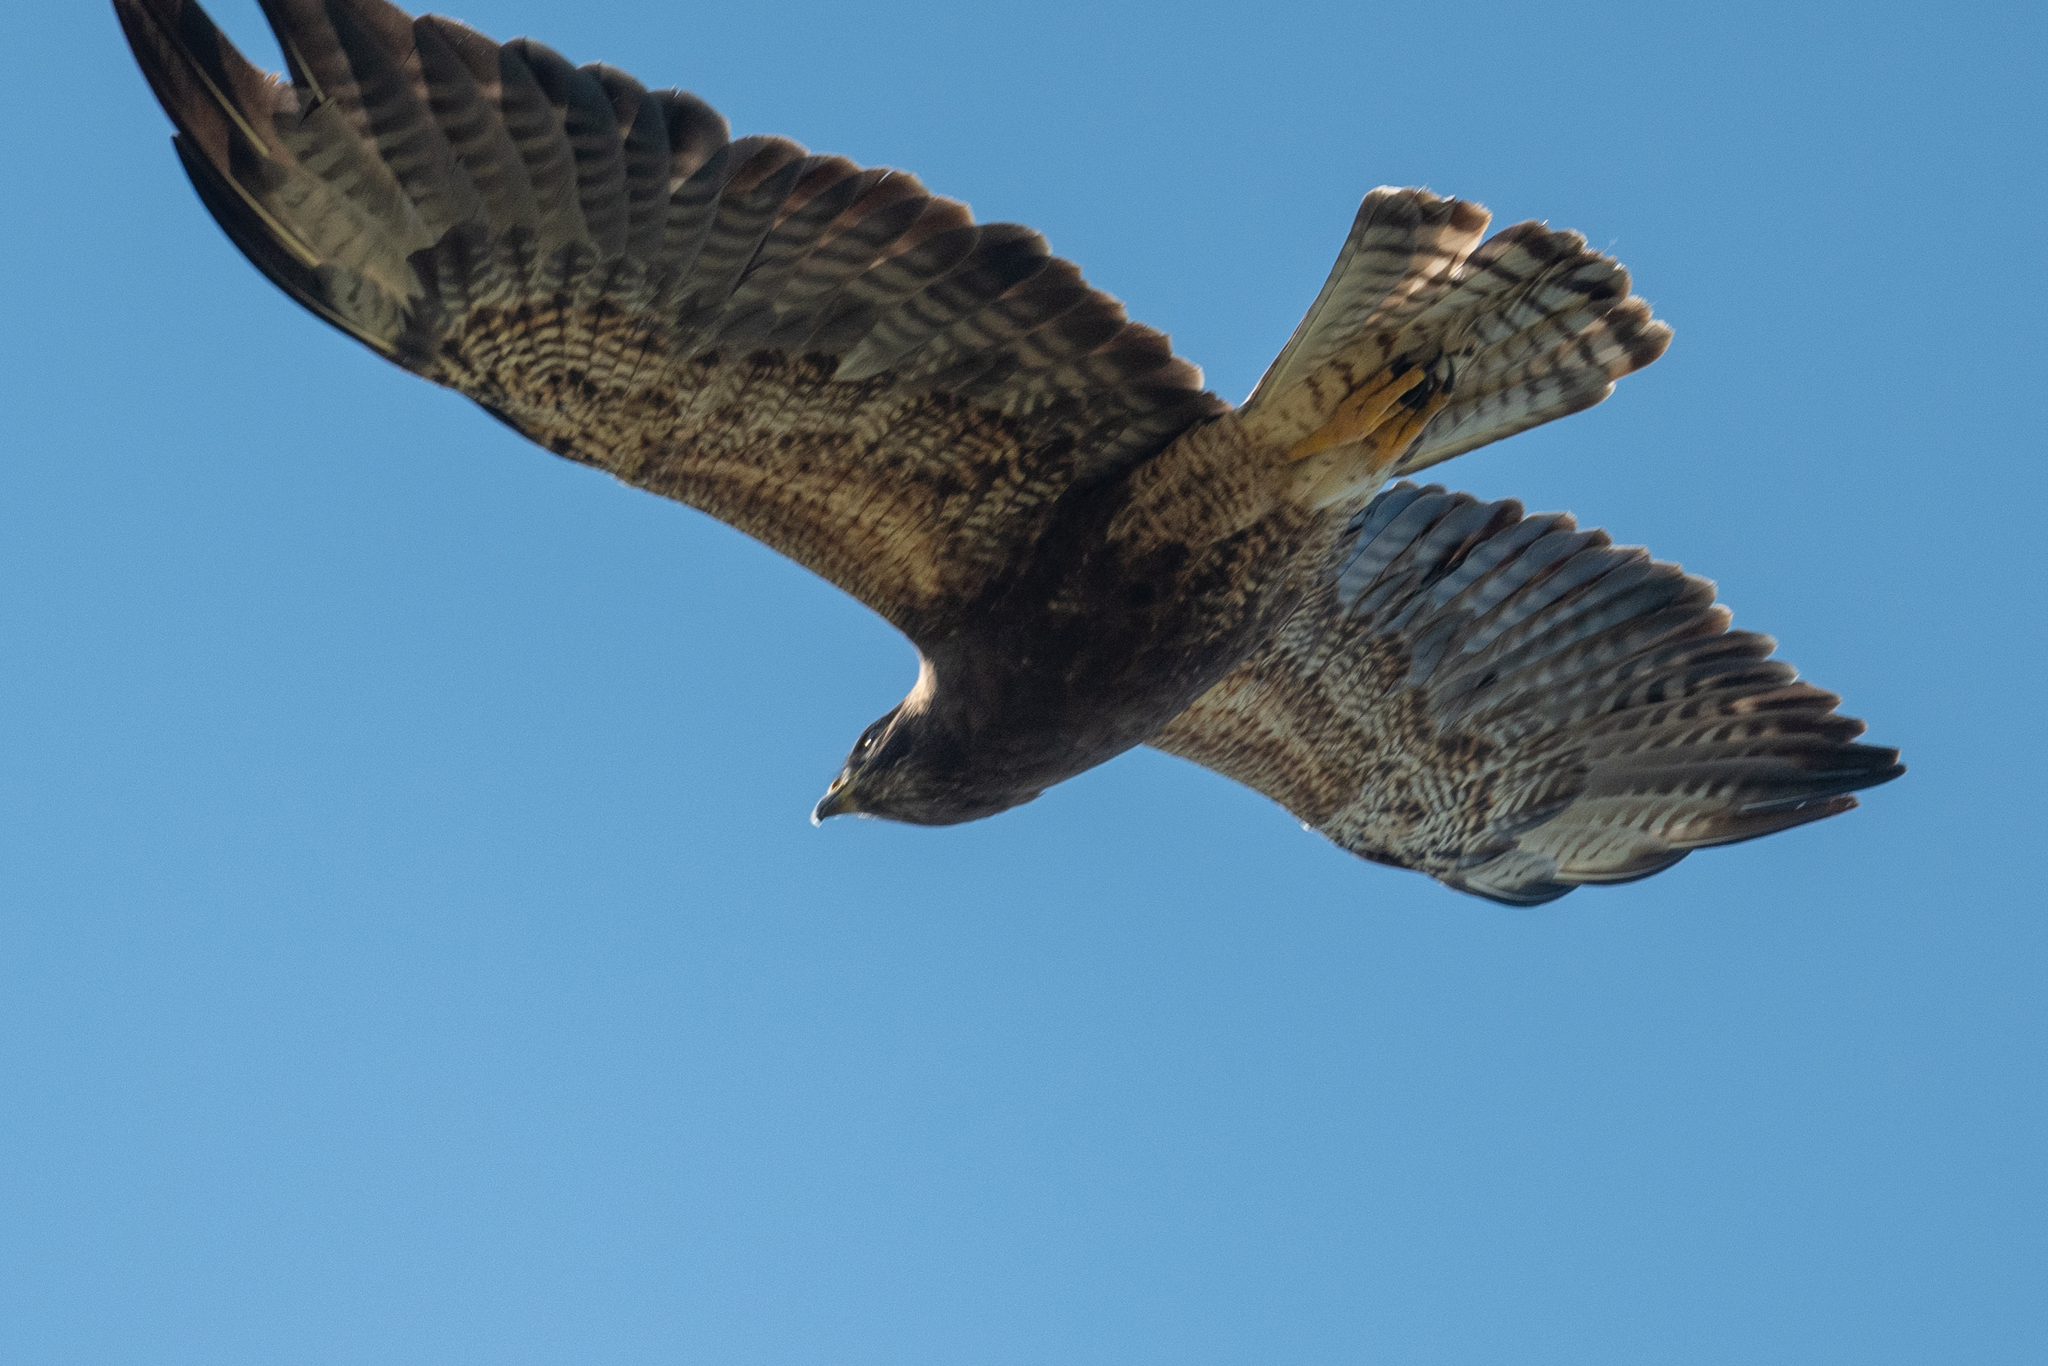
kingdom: Animalia
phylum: Chordata
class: Aves
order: Accipitriformes
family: Accipitridae
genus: Buteo
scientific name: Buteo swainsoni
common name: Swainson's hawk
